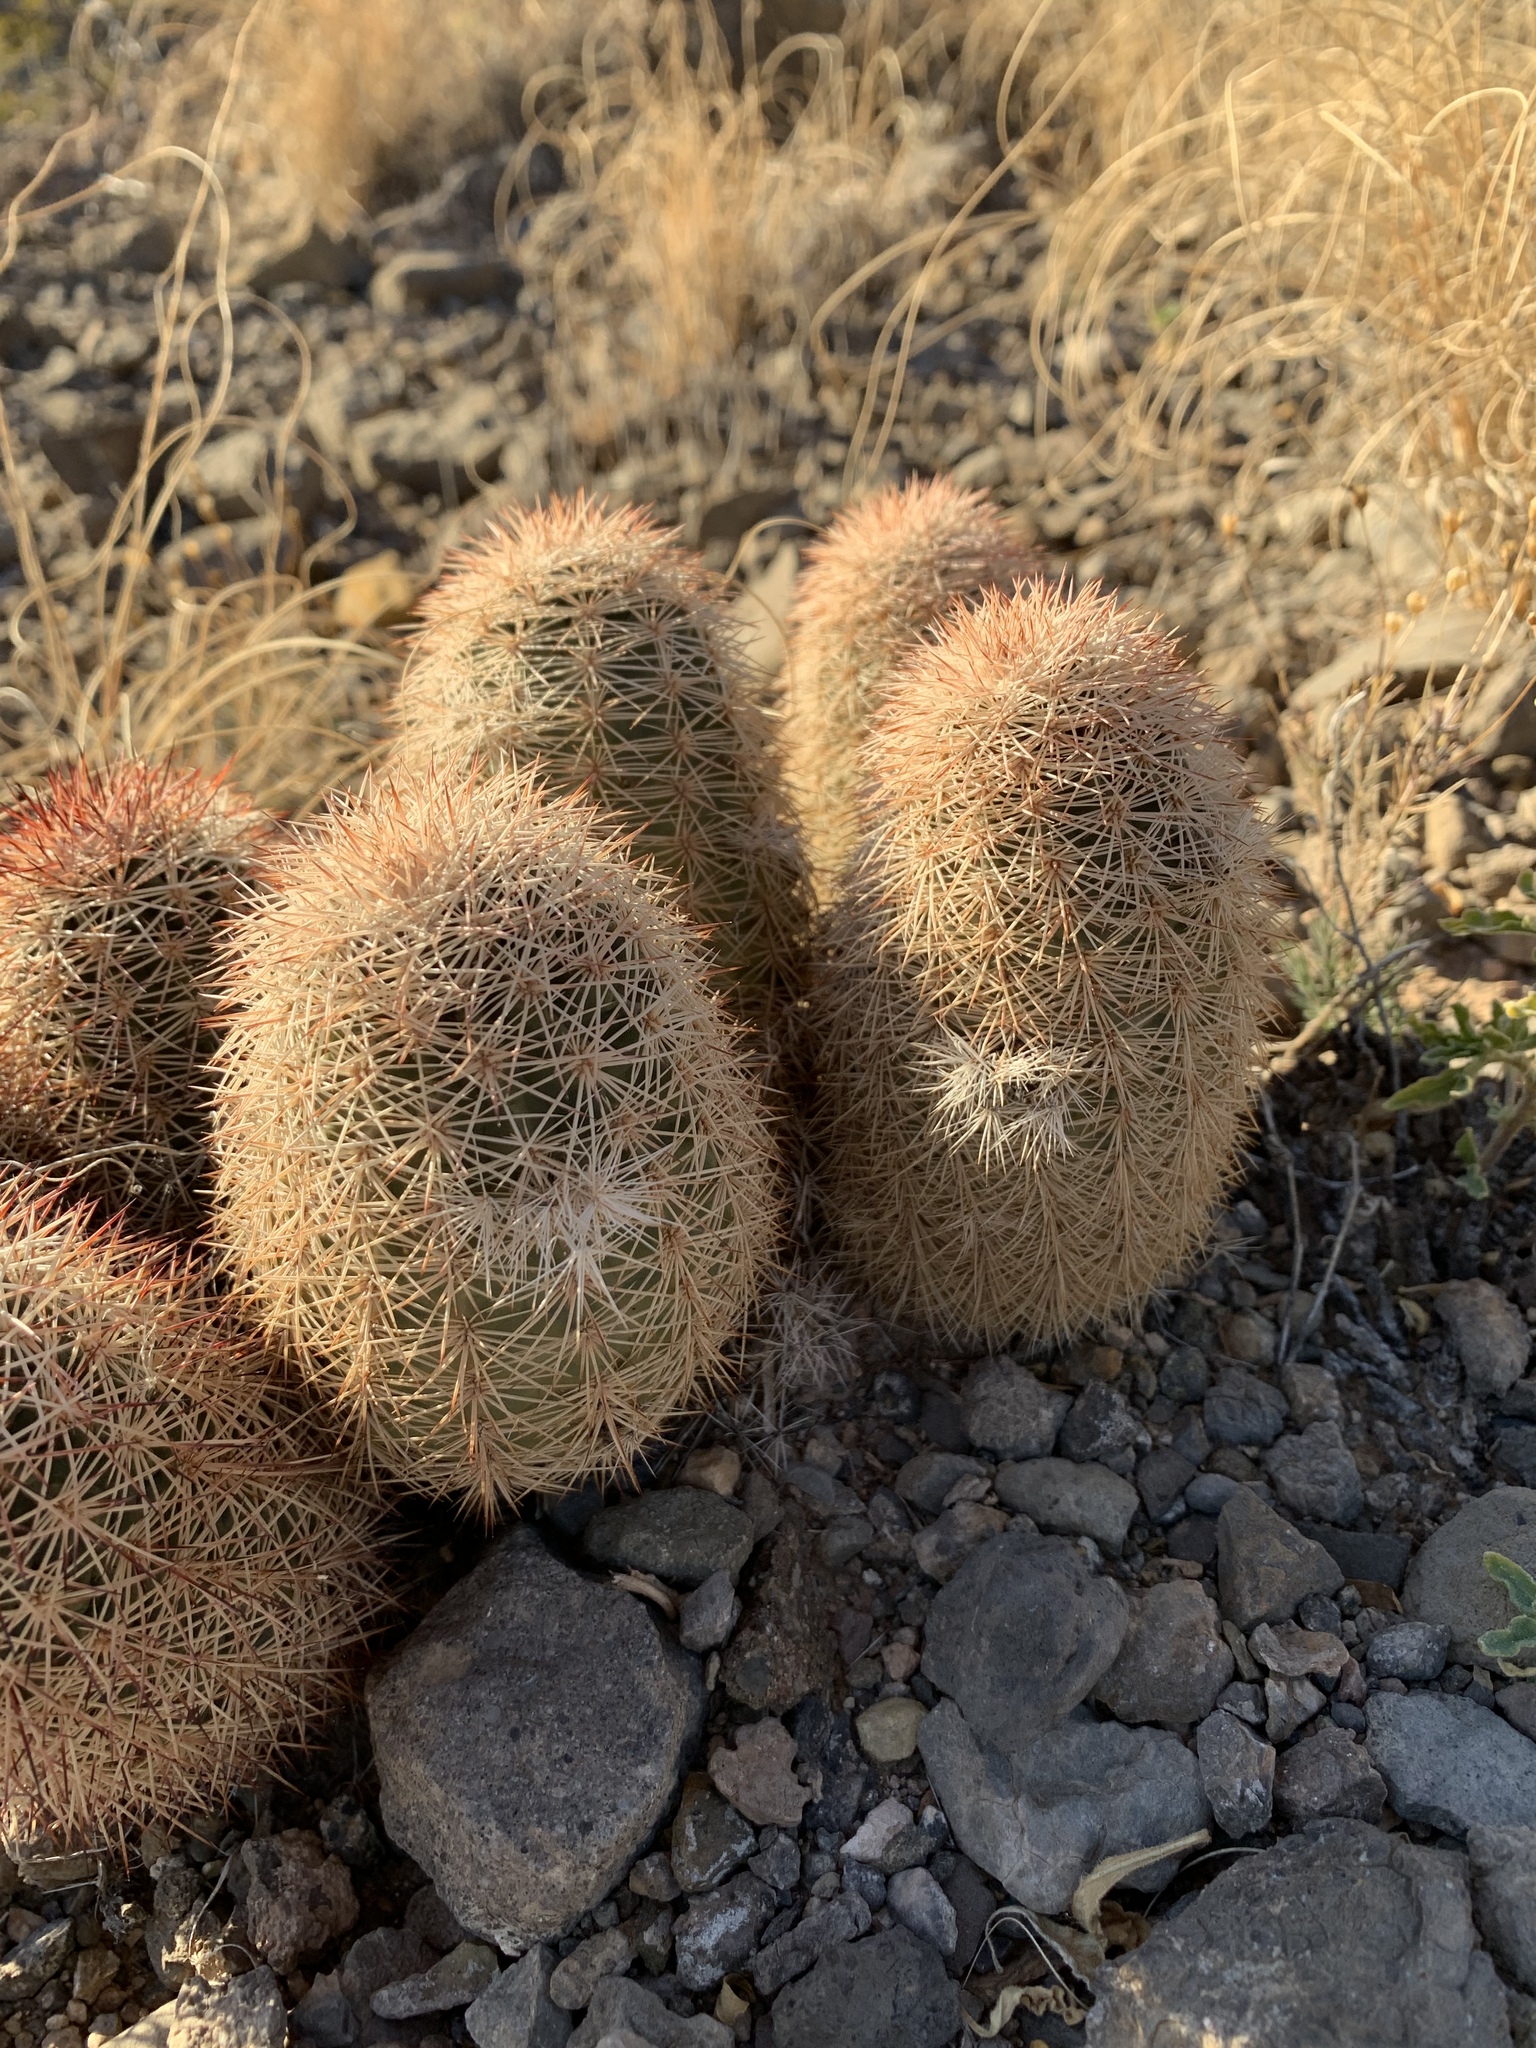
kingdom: Plantae
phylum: Tracheophyta
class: Magnoliopsida
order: Caryophyllales
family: Cactaceae
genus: Echinocereus
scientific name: Echinocereus dasyacanthus
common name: Spiny hedgehog cactus
